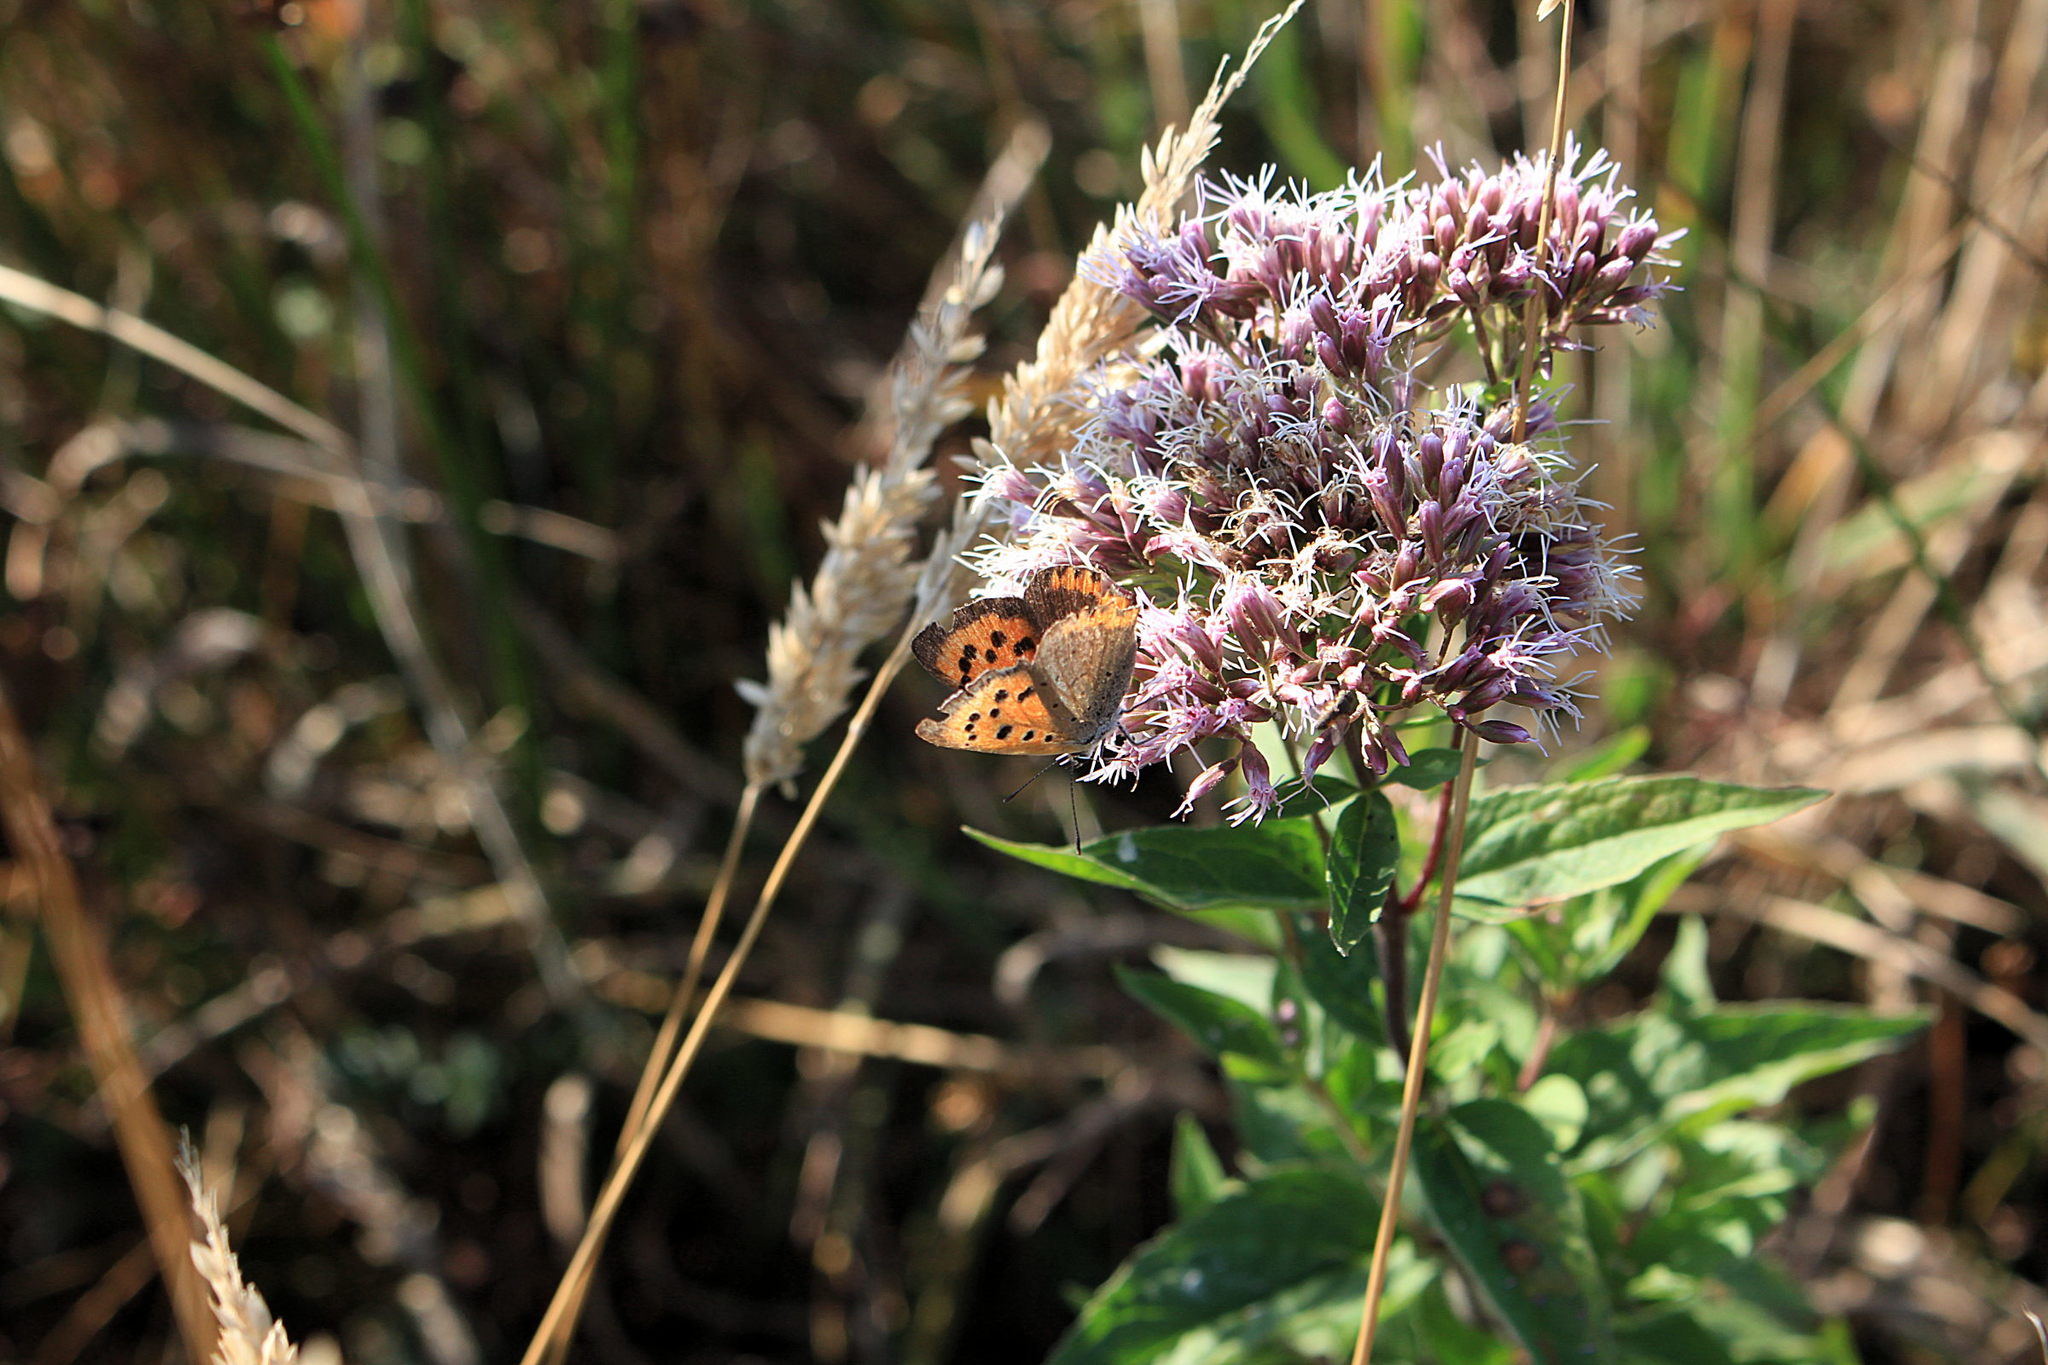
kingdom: Animalia
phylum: Arthropoda
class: Insecta
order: Lepidoptera
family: Lycaenidae
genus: Lycaena
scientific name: Lycaena phlaeas
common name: Small copper
